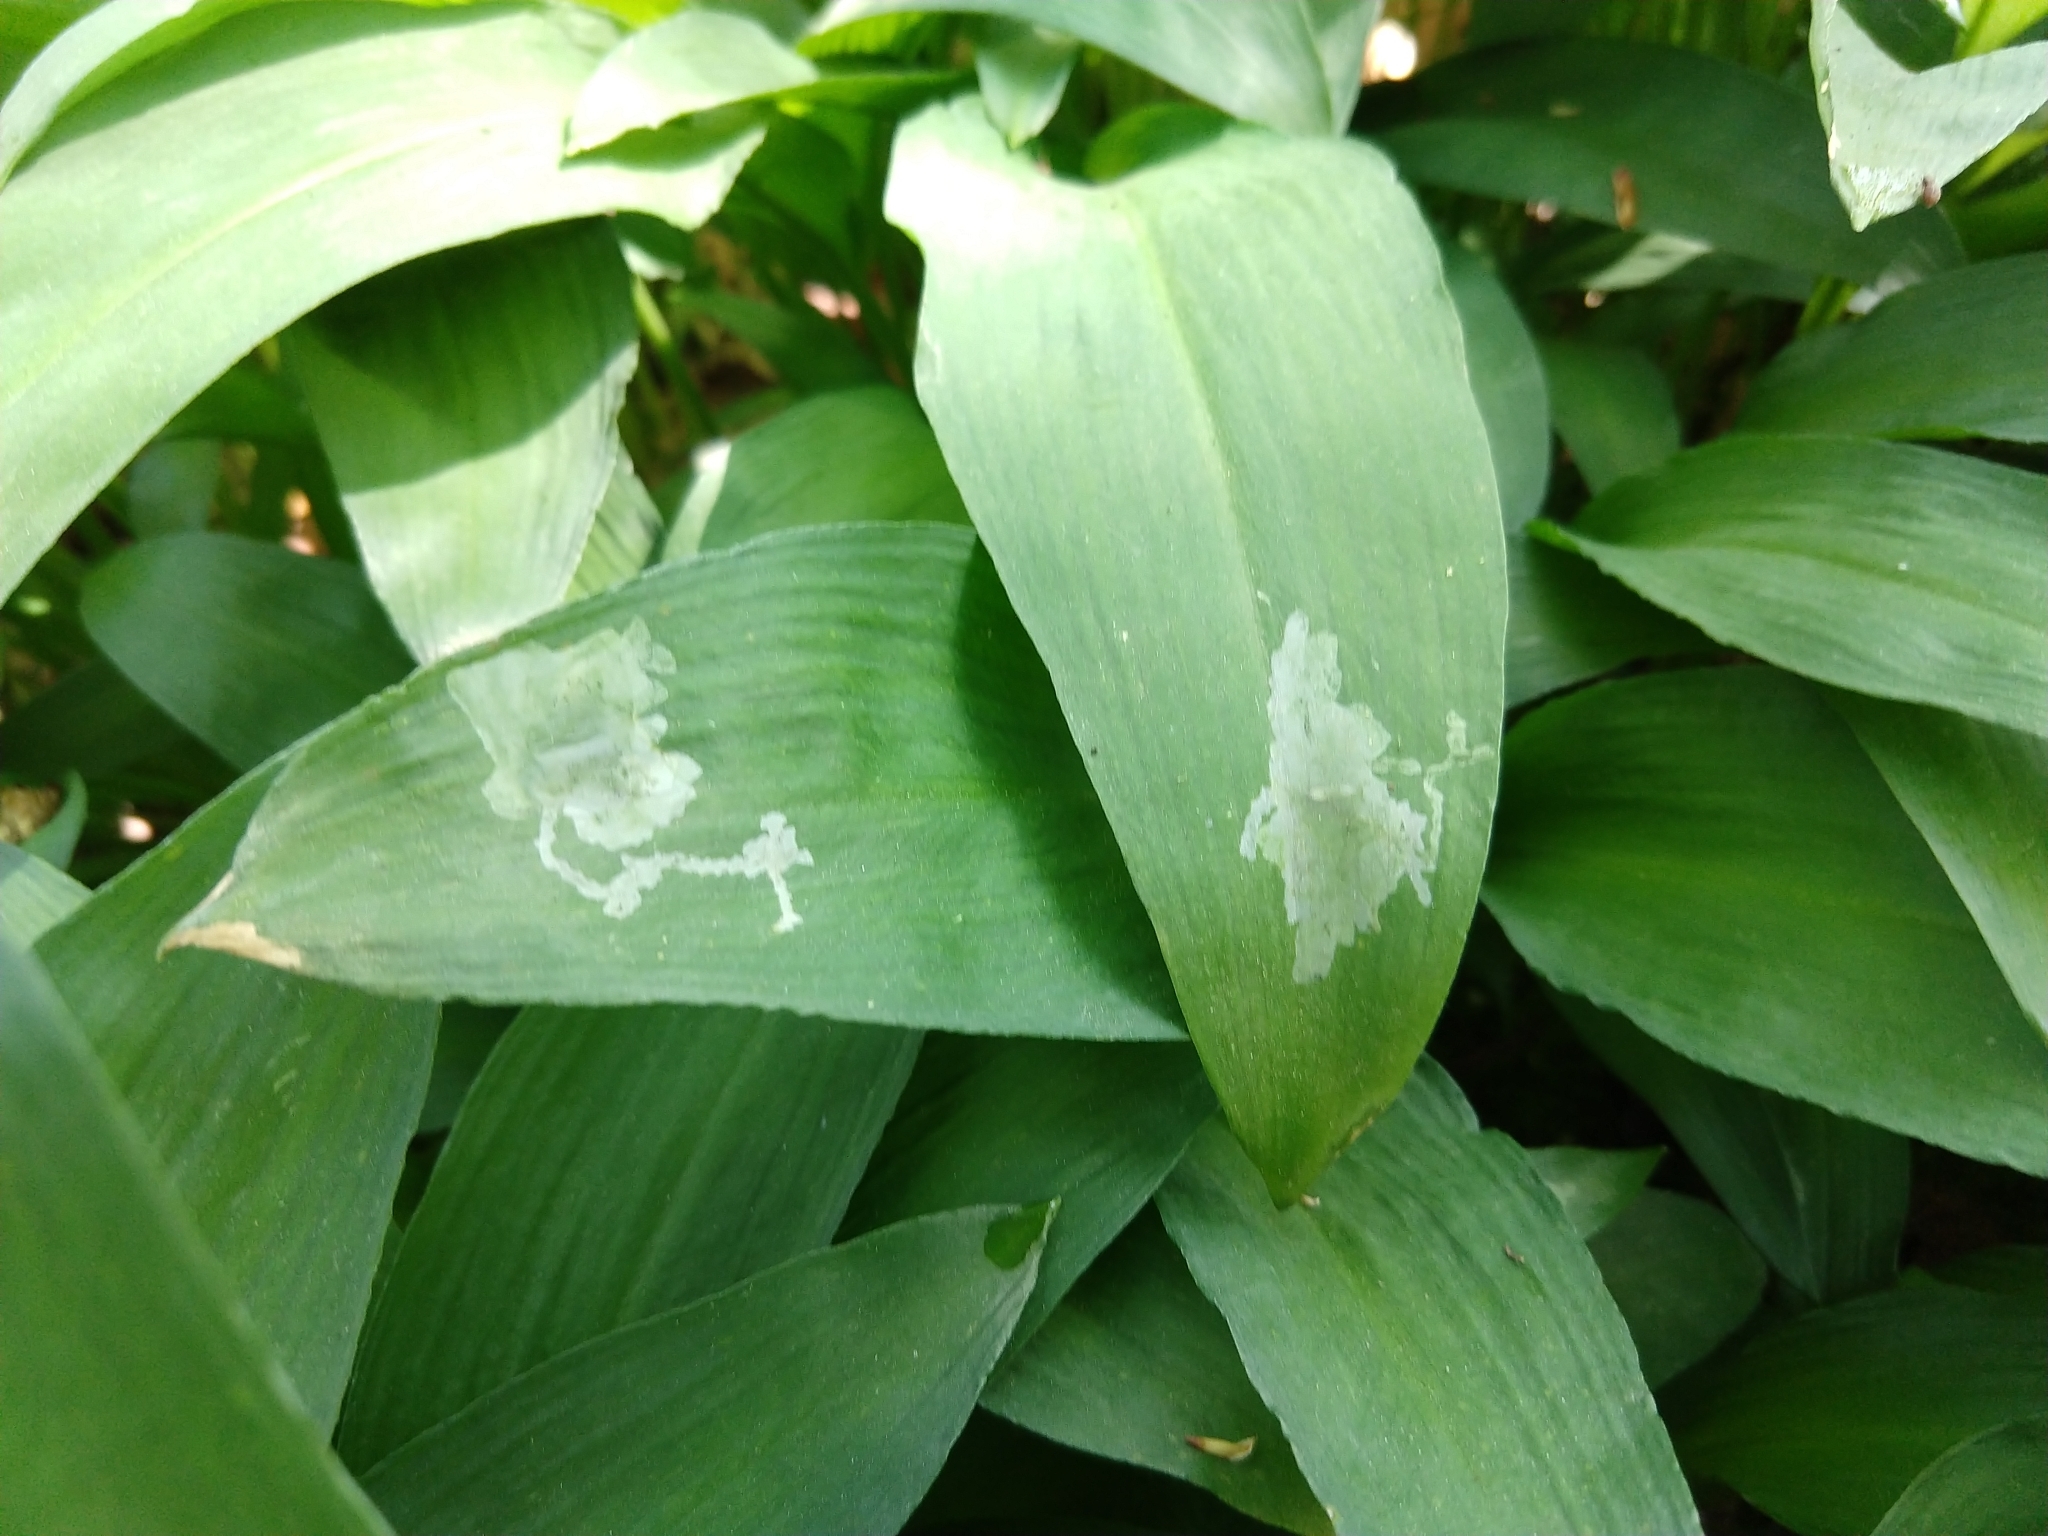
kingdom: Animalia
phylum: Arthropoda
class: Insecta
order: Diptera
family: Syrphidae
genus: Cheilosia
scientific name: Cheilosia fasciata
